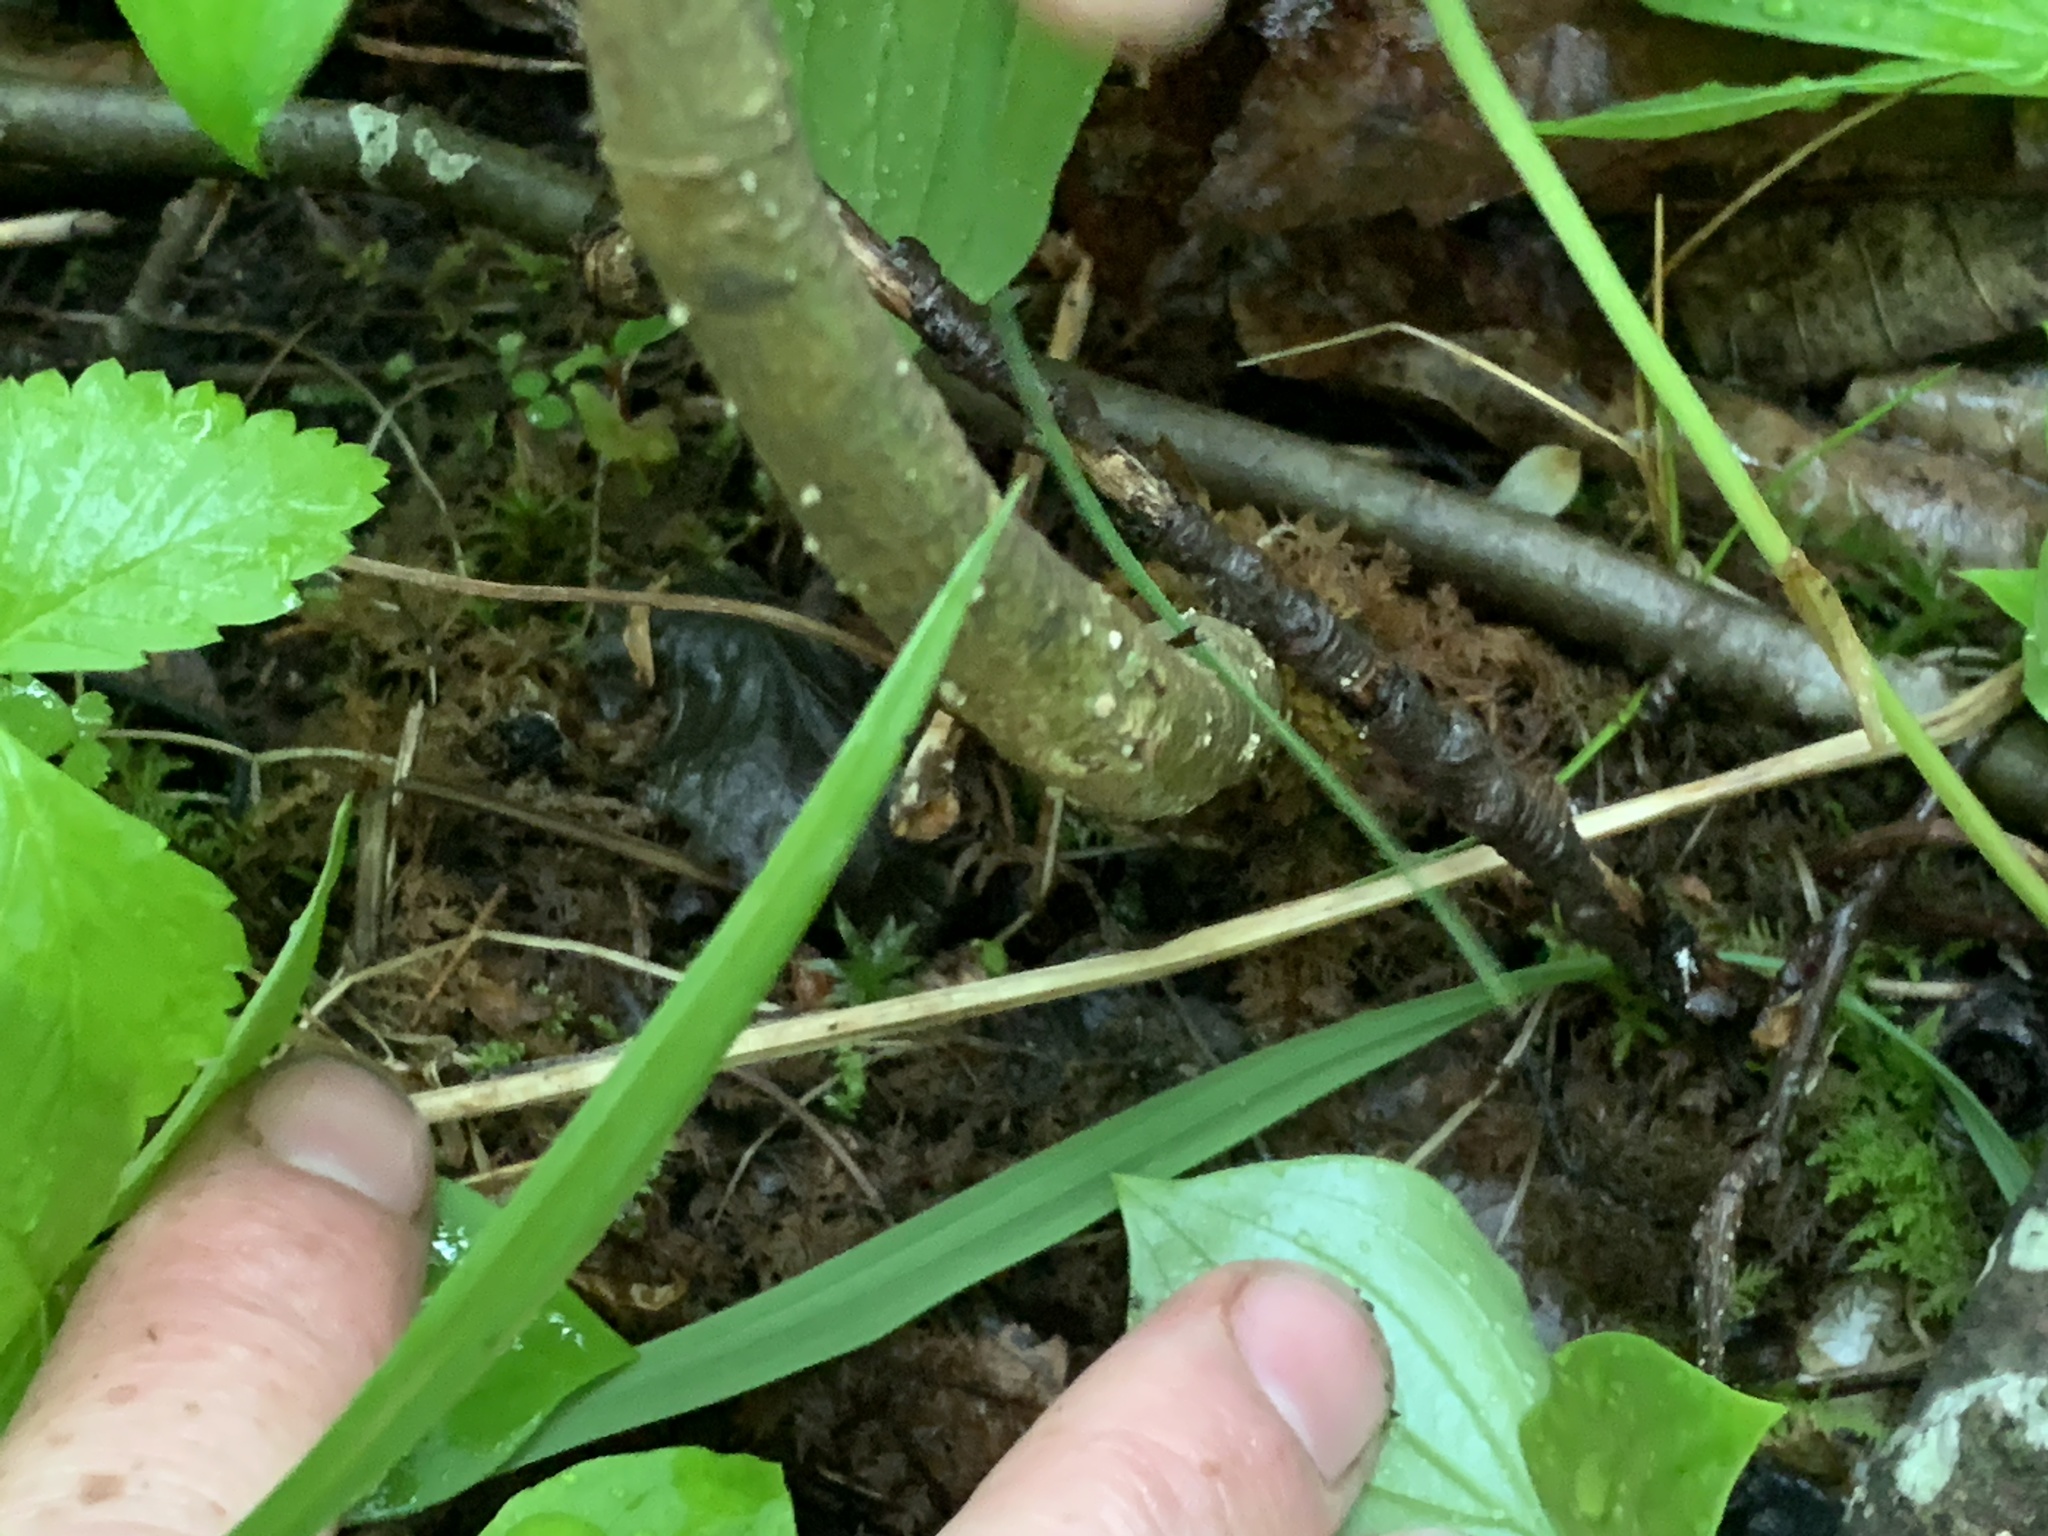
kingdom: Plantae
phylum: Tracheophyta
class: Magnoliopsida
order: Lamiales
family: Oleaceae
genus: Fraxinus
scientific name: Fraxinus nigra
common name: Black ash
